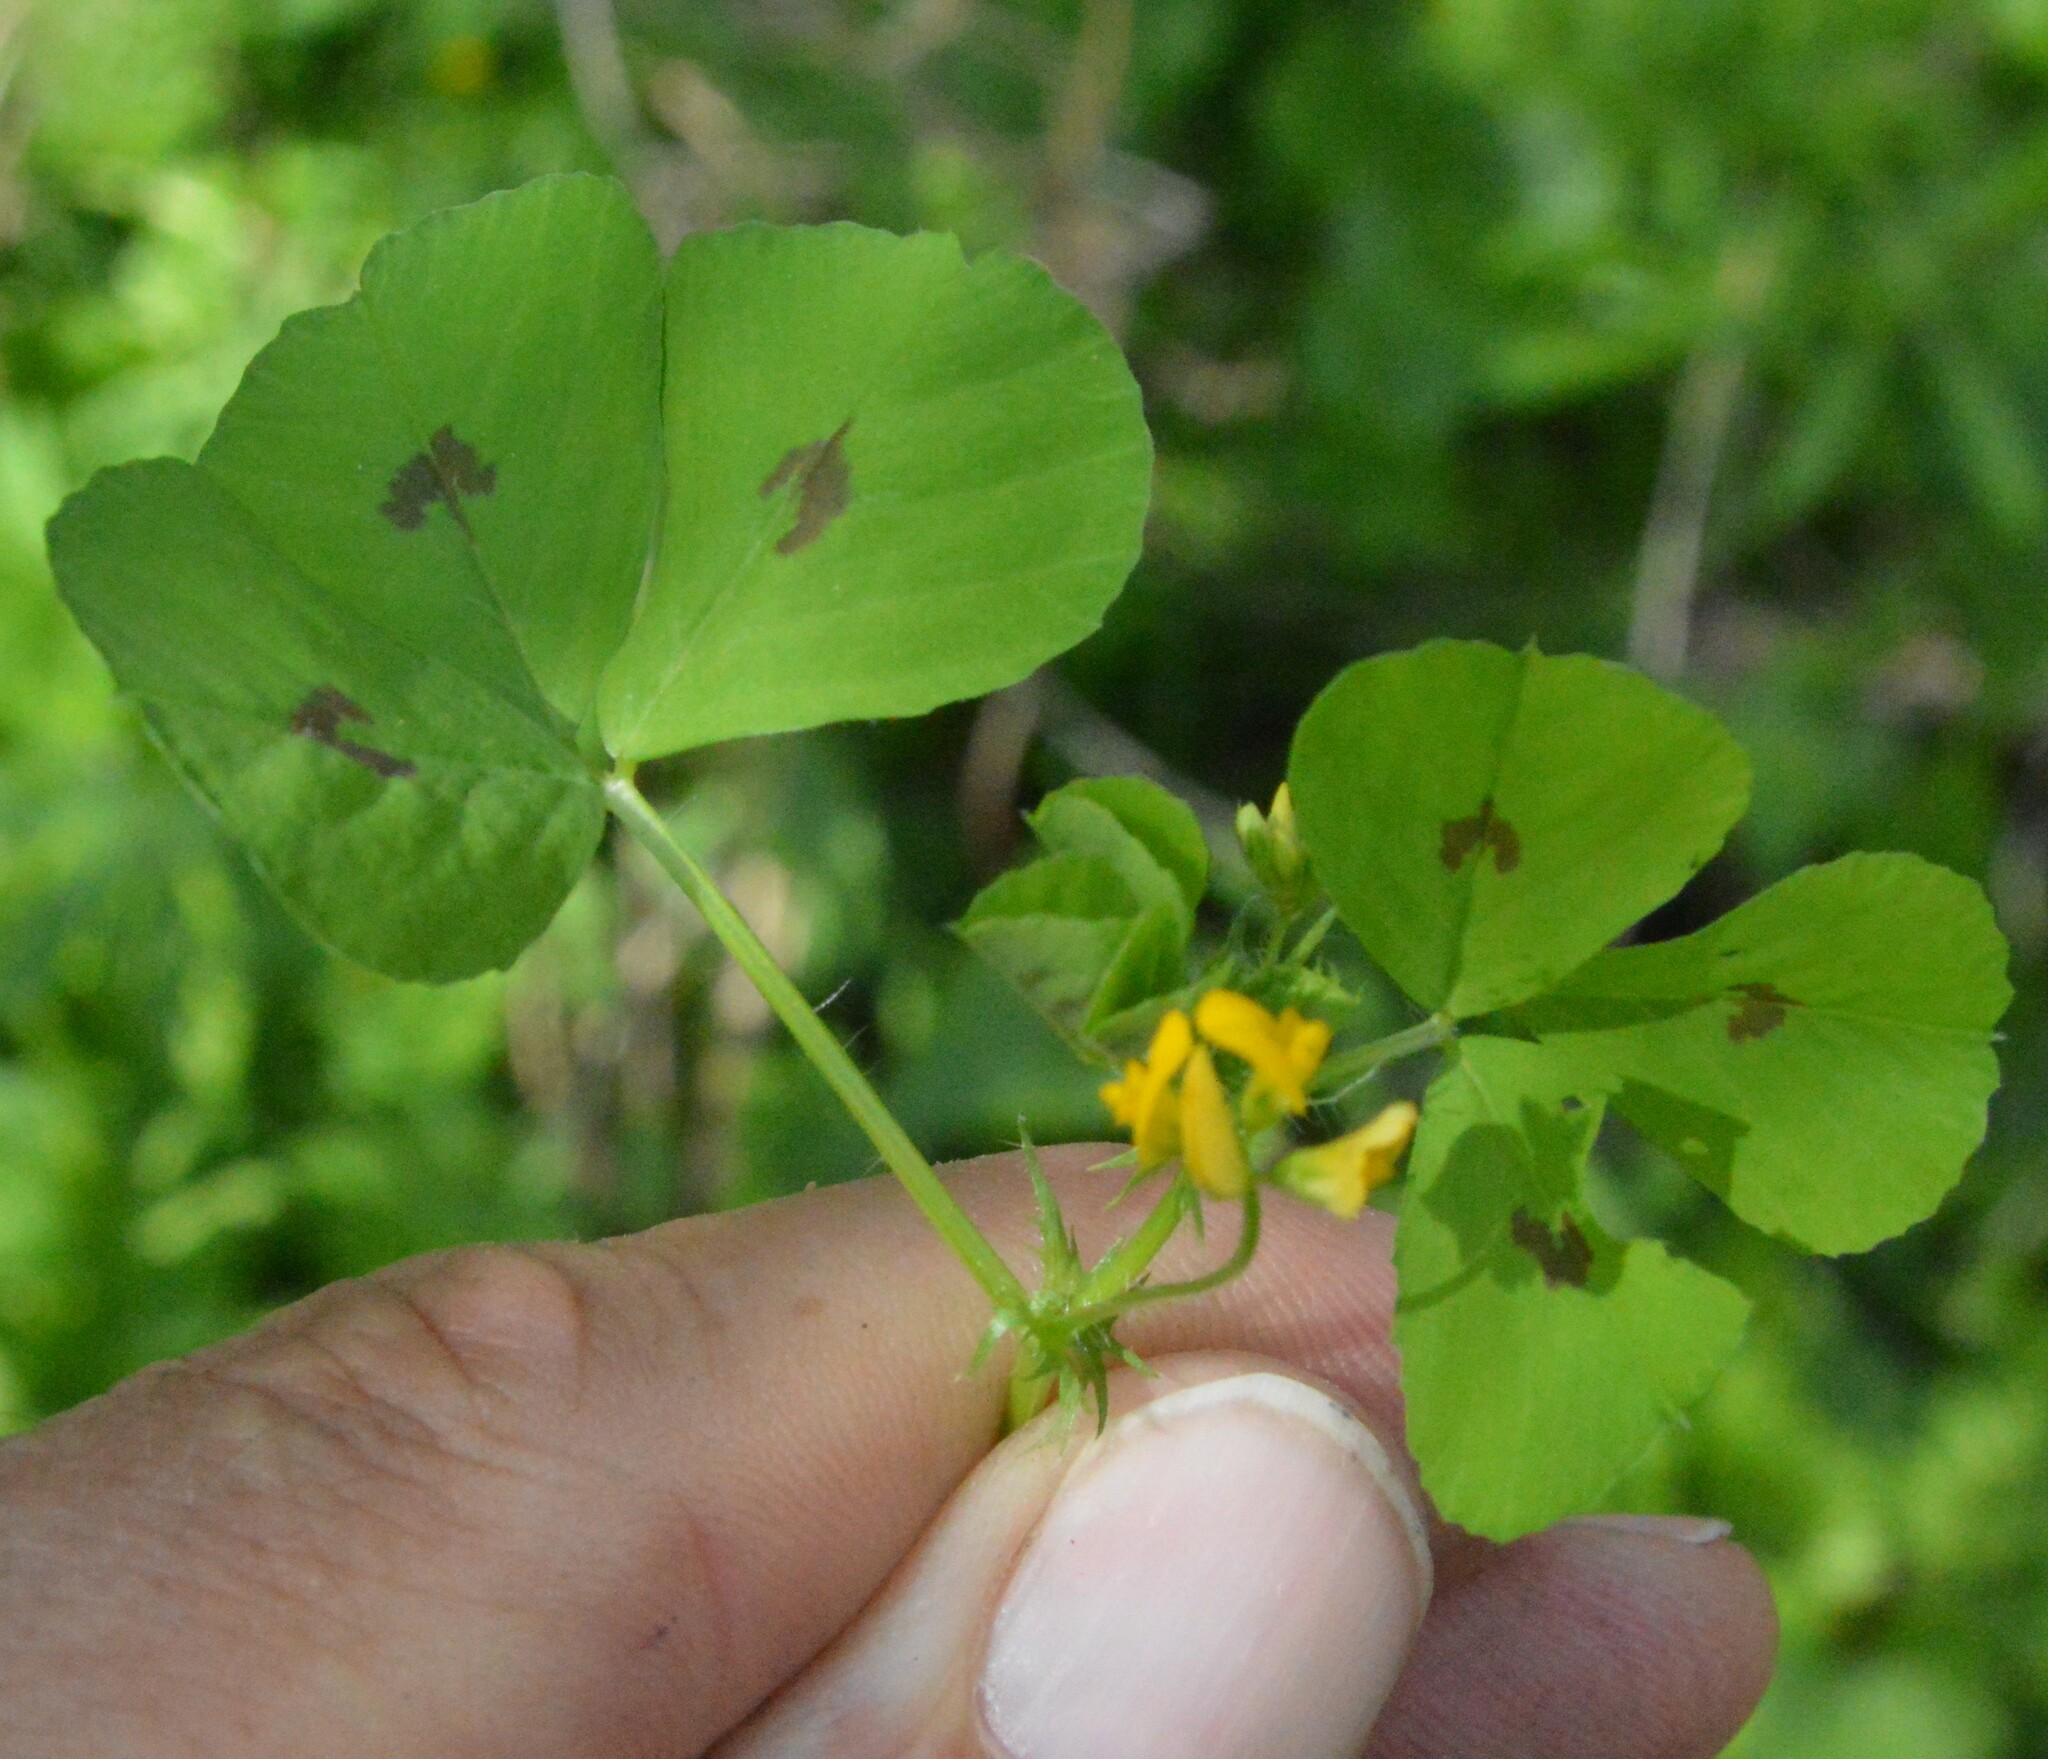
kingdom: Plantae
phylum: Tracheophyta
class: Magnoliopsida
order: Fabales
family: Fabaceae
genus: Medicago
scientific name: Medicago arabica
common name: Spotted medick
